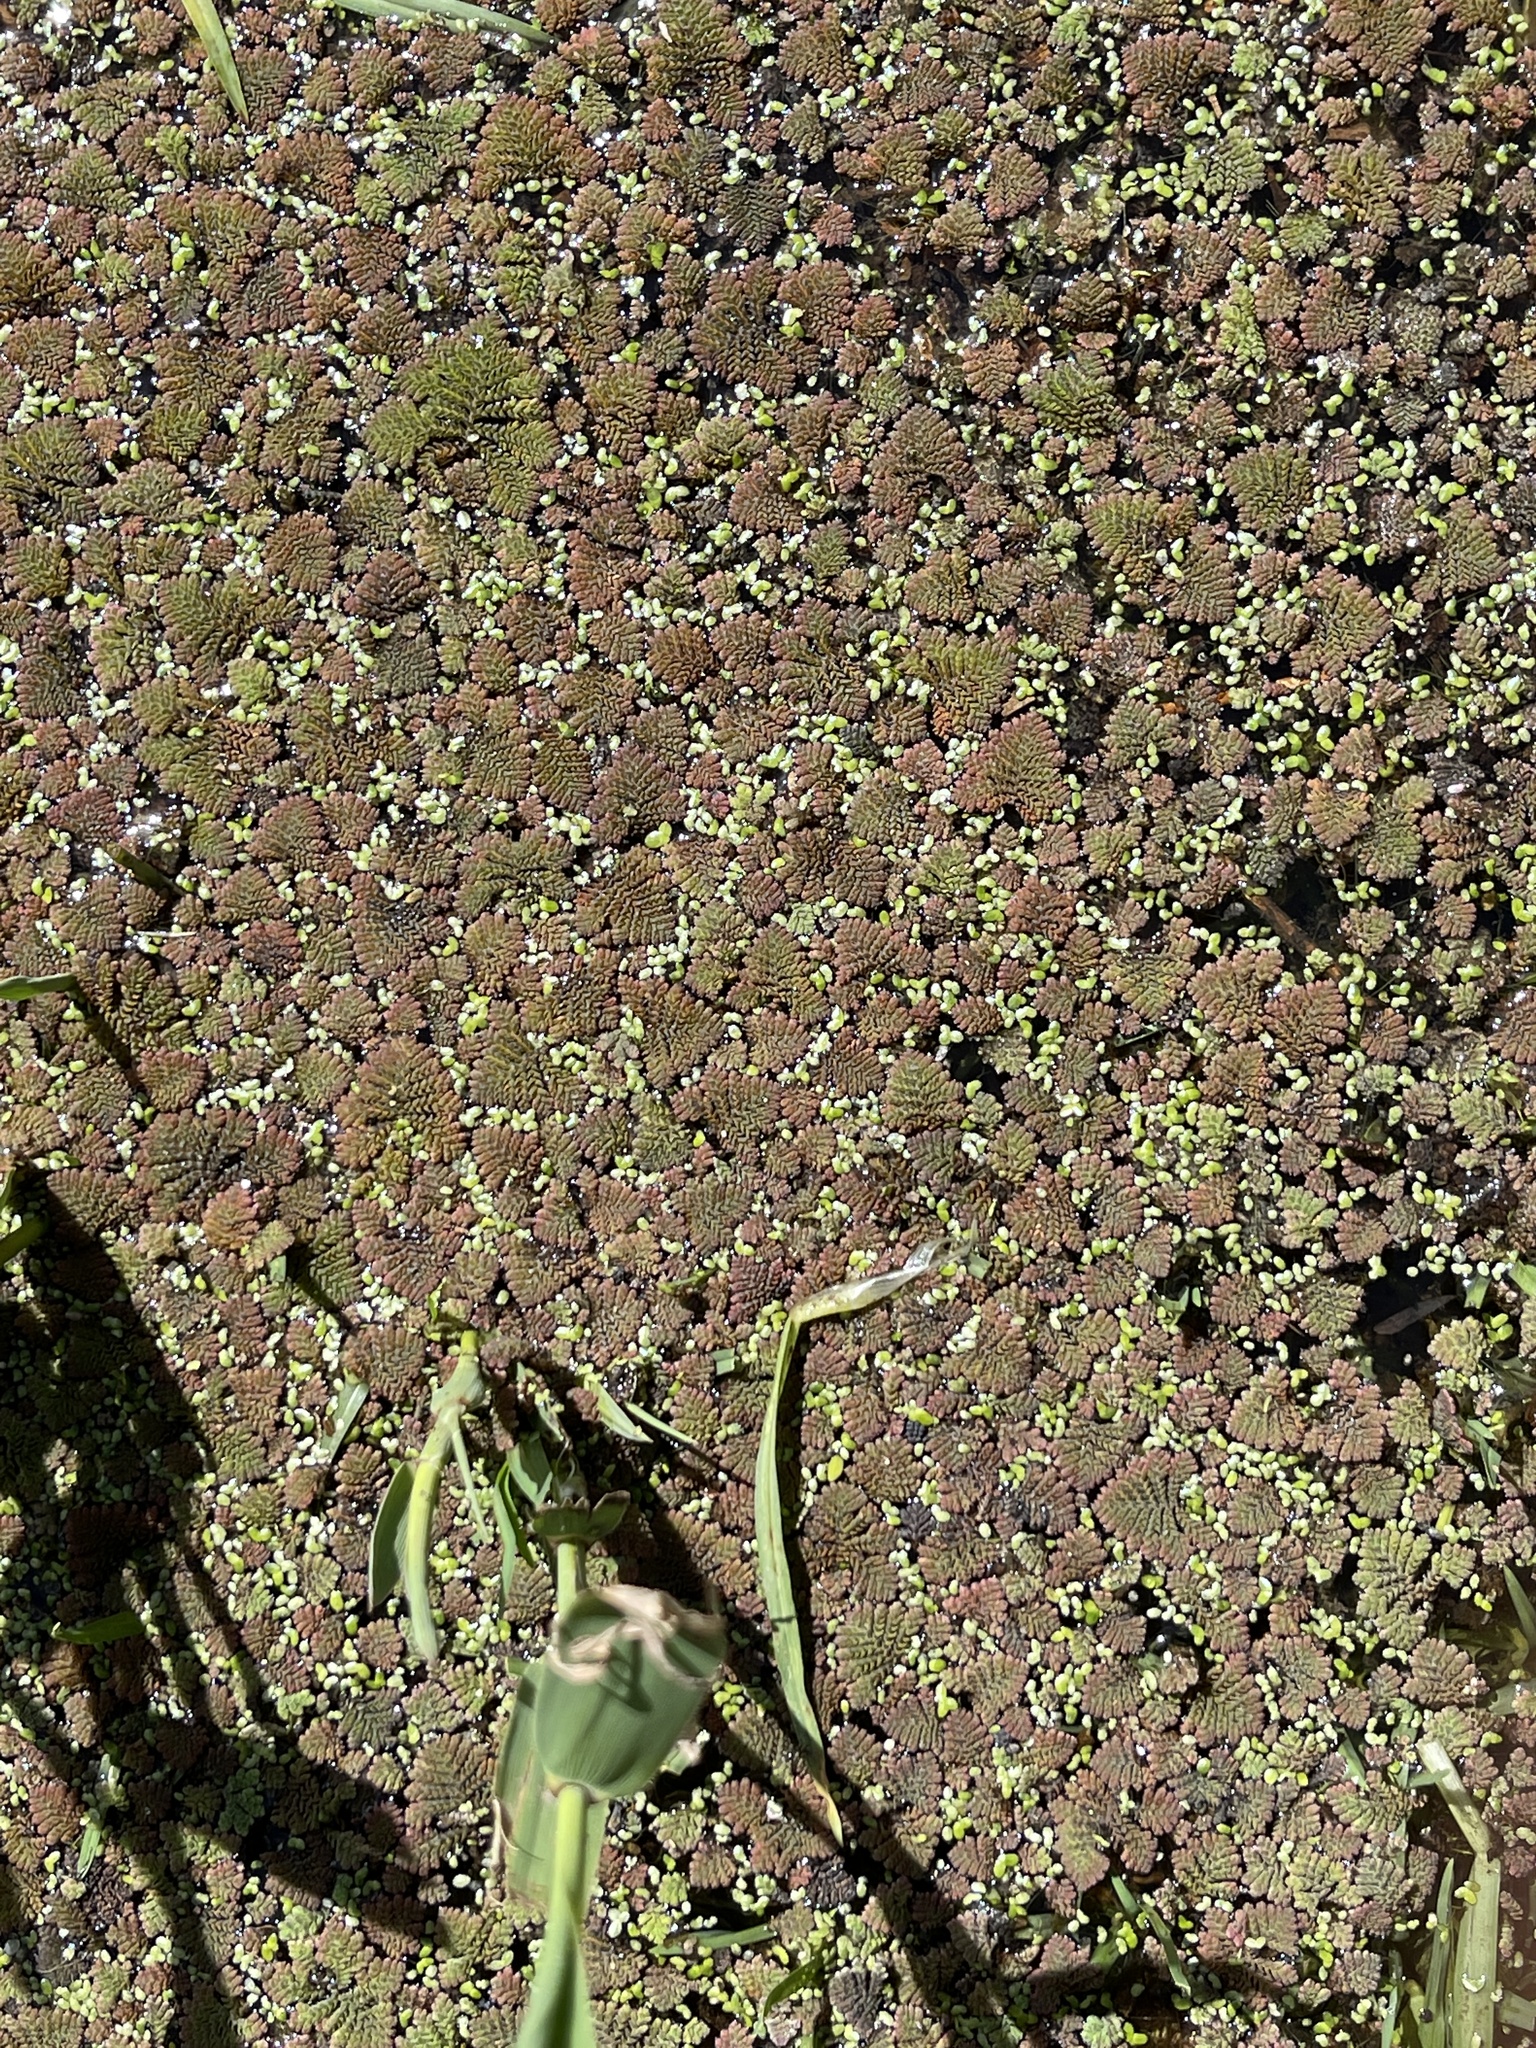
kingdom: Plantae
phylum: Tracheophyta
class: Polypodiopsida
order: Salviniales
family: Salviniaceae
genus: Azolla
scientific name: Azolla pinnata
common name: Ferny azolla
